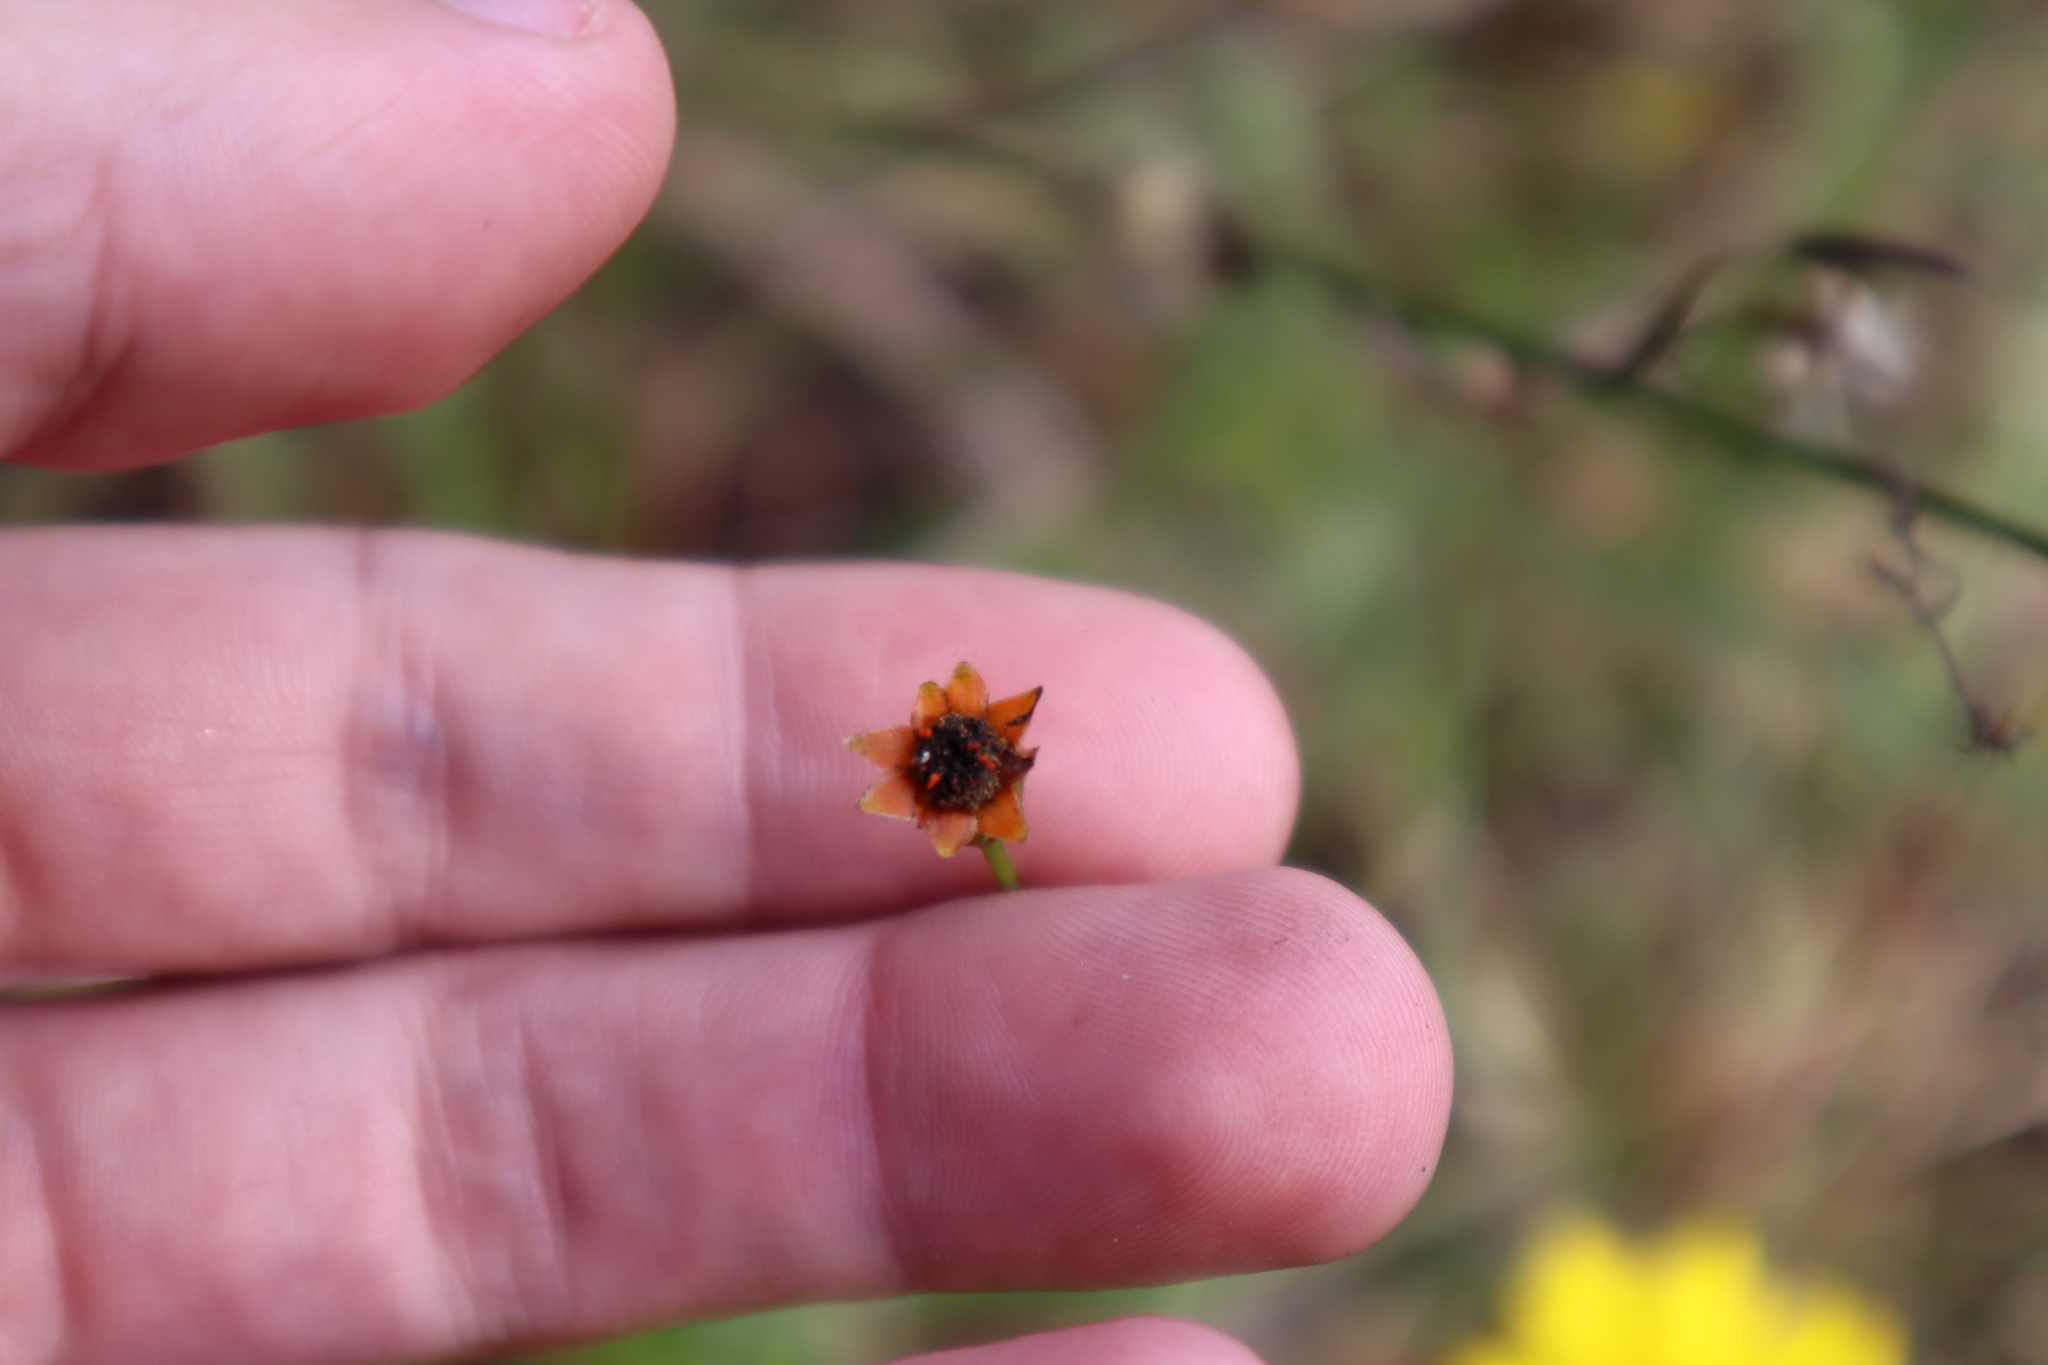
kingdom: Plantae
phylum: Tracheophyta
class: Magnoliopsida
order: Asterales
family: Asteraceae
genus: Coreopsis
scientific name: Coreopsis leavenworthii
